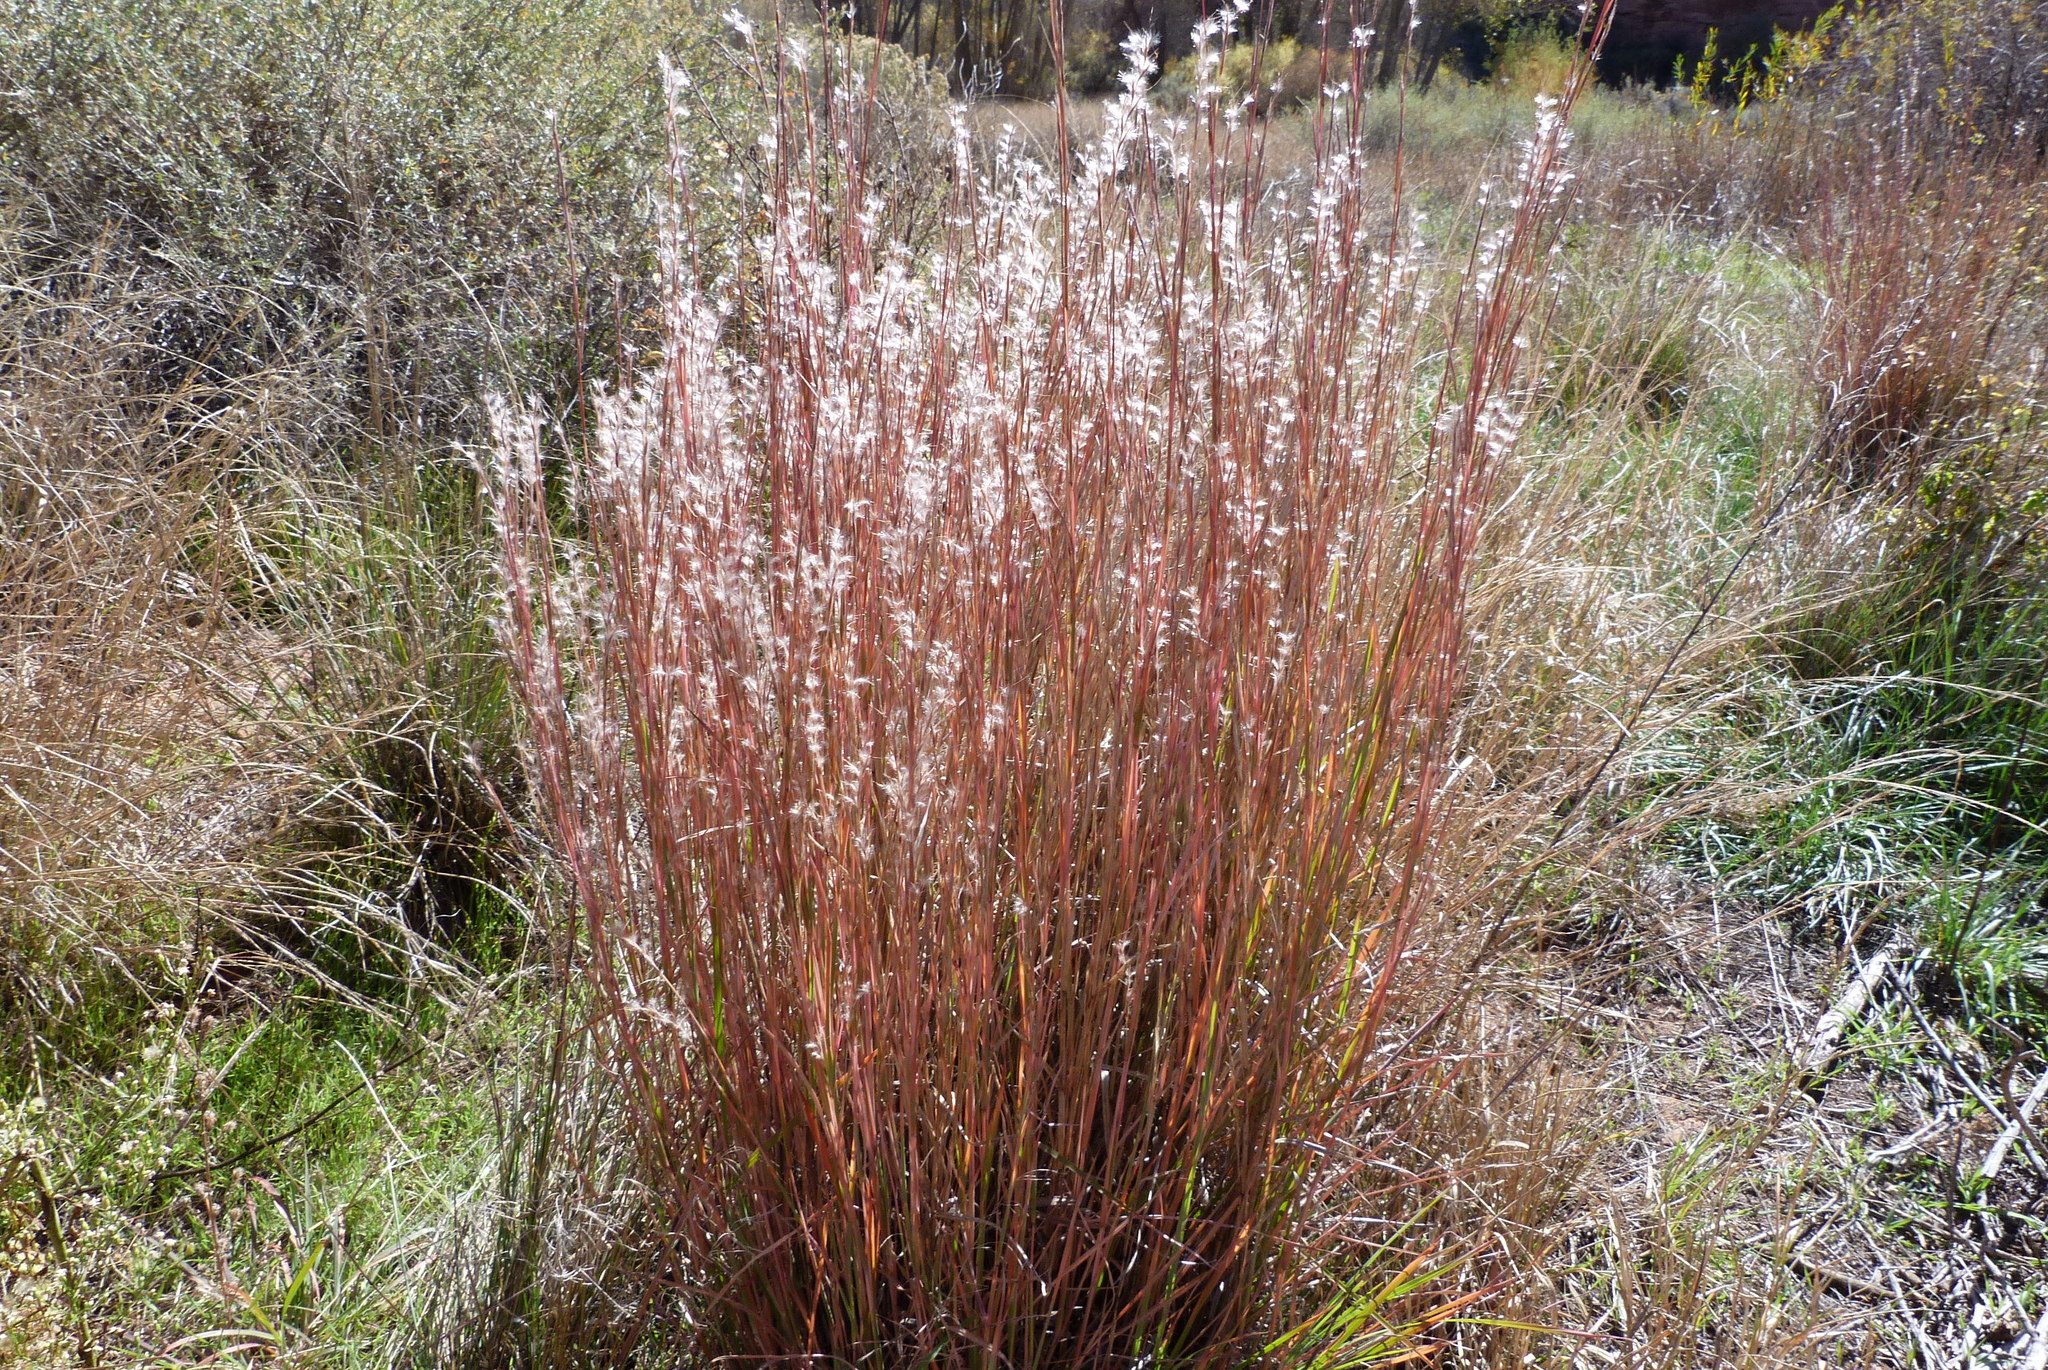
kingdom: Plantae
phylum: Tracheophyta
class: Liliopsida
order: Poales
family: Poaceae
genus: Schizachyrium
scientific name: Schizachyrium scoparium
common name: Little bluestem
